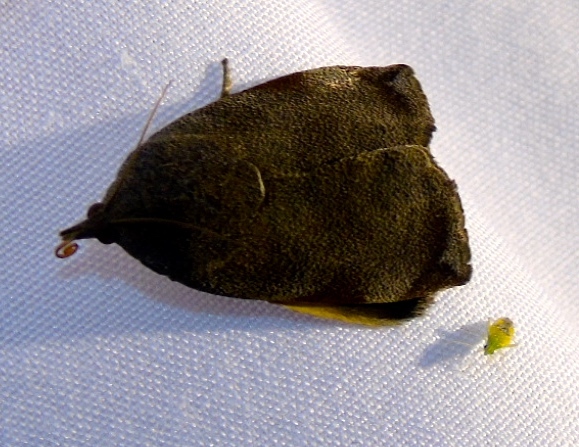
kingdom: Animalia
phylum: Arthropoda
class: Insecta
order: Lepidoptera
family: Hyblaeidae
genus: Hyblaea
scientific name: Hyblaea
